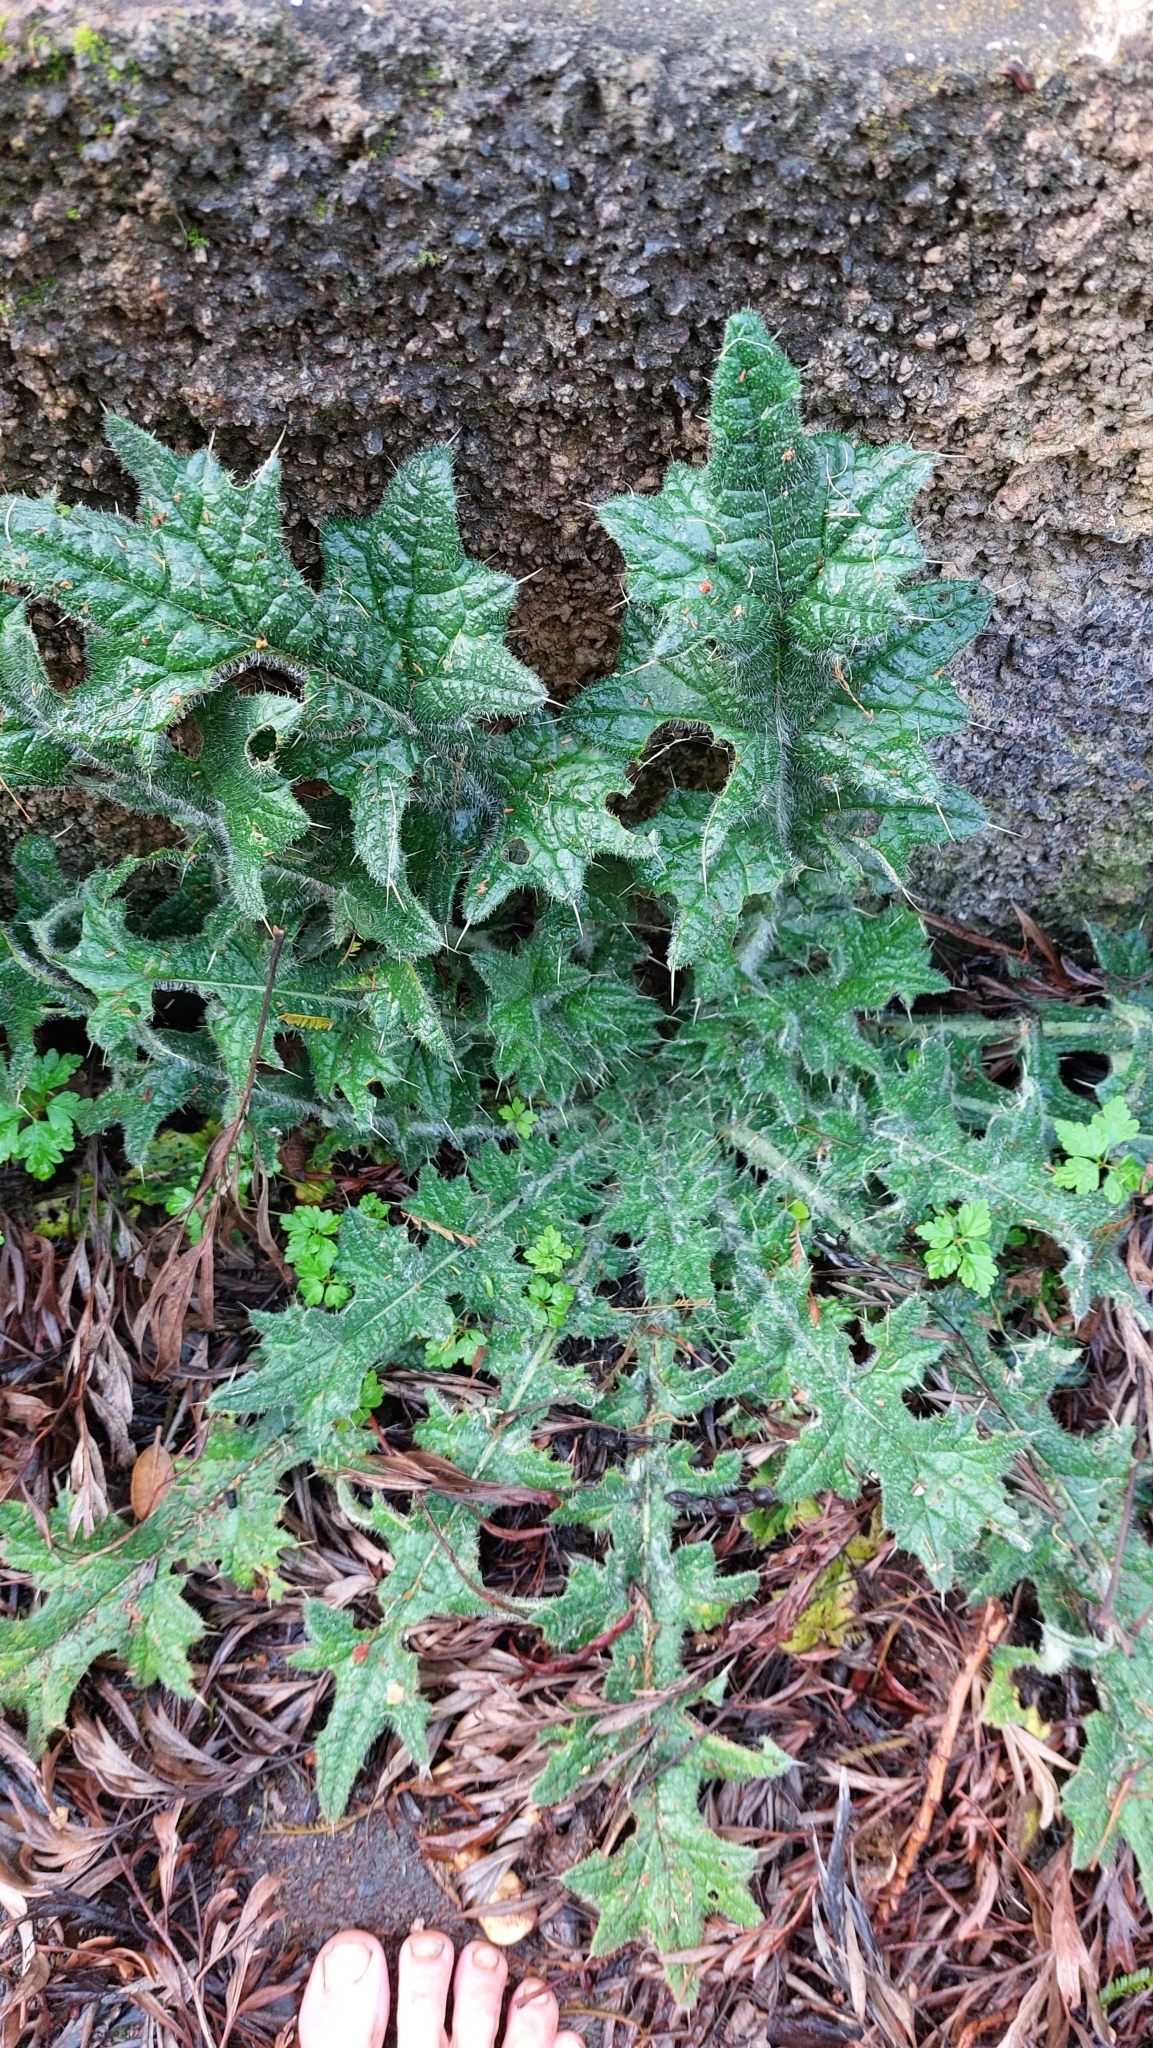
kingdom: Plantae
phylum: Tracheophyta
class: Magnoliopsida
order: Asterales
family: Asteraceae
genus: Cirsium
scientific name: Cirsium vulgare
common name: Bull thistle
